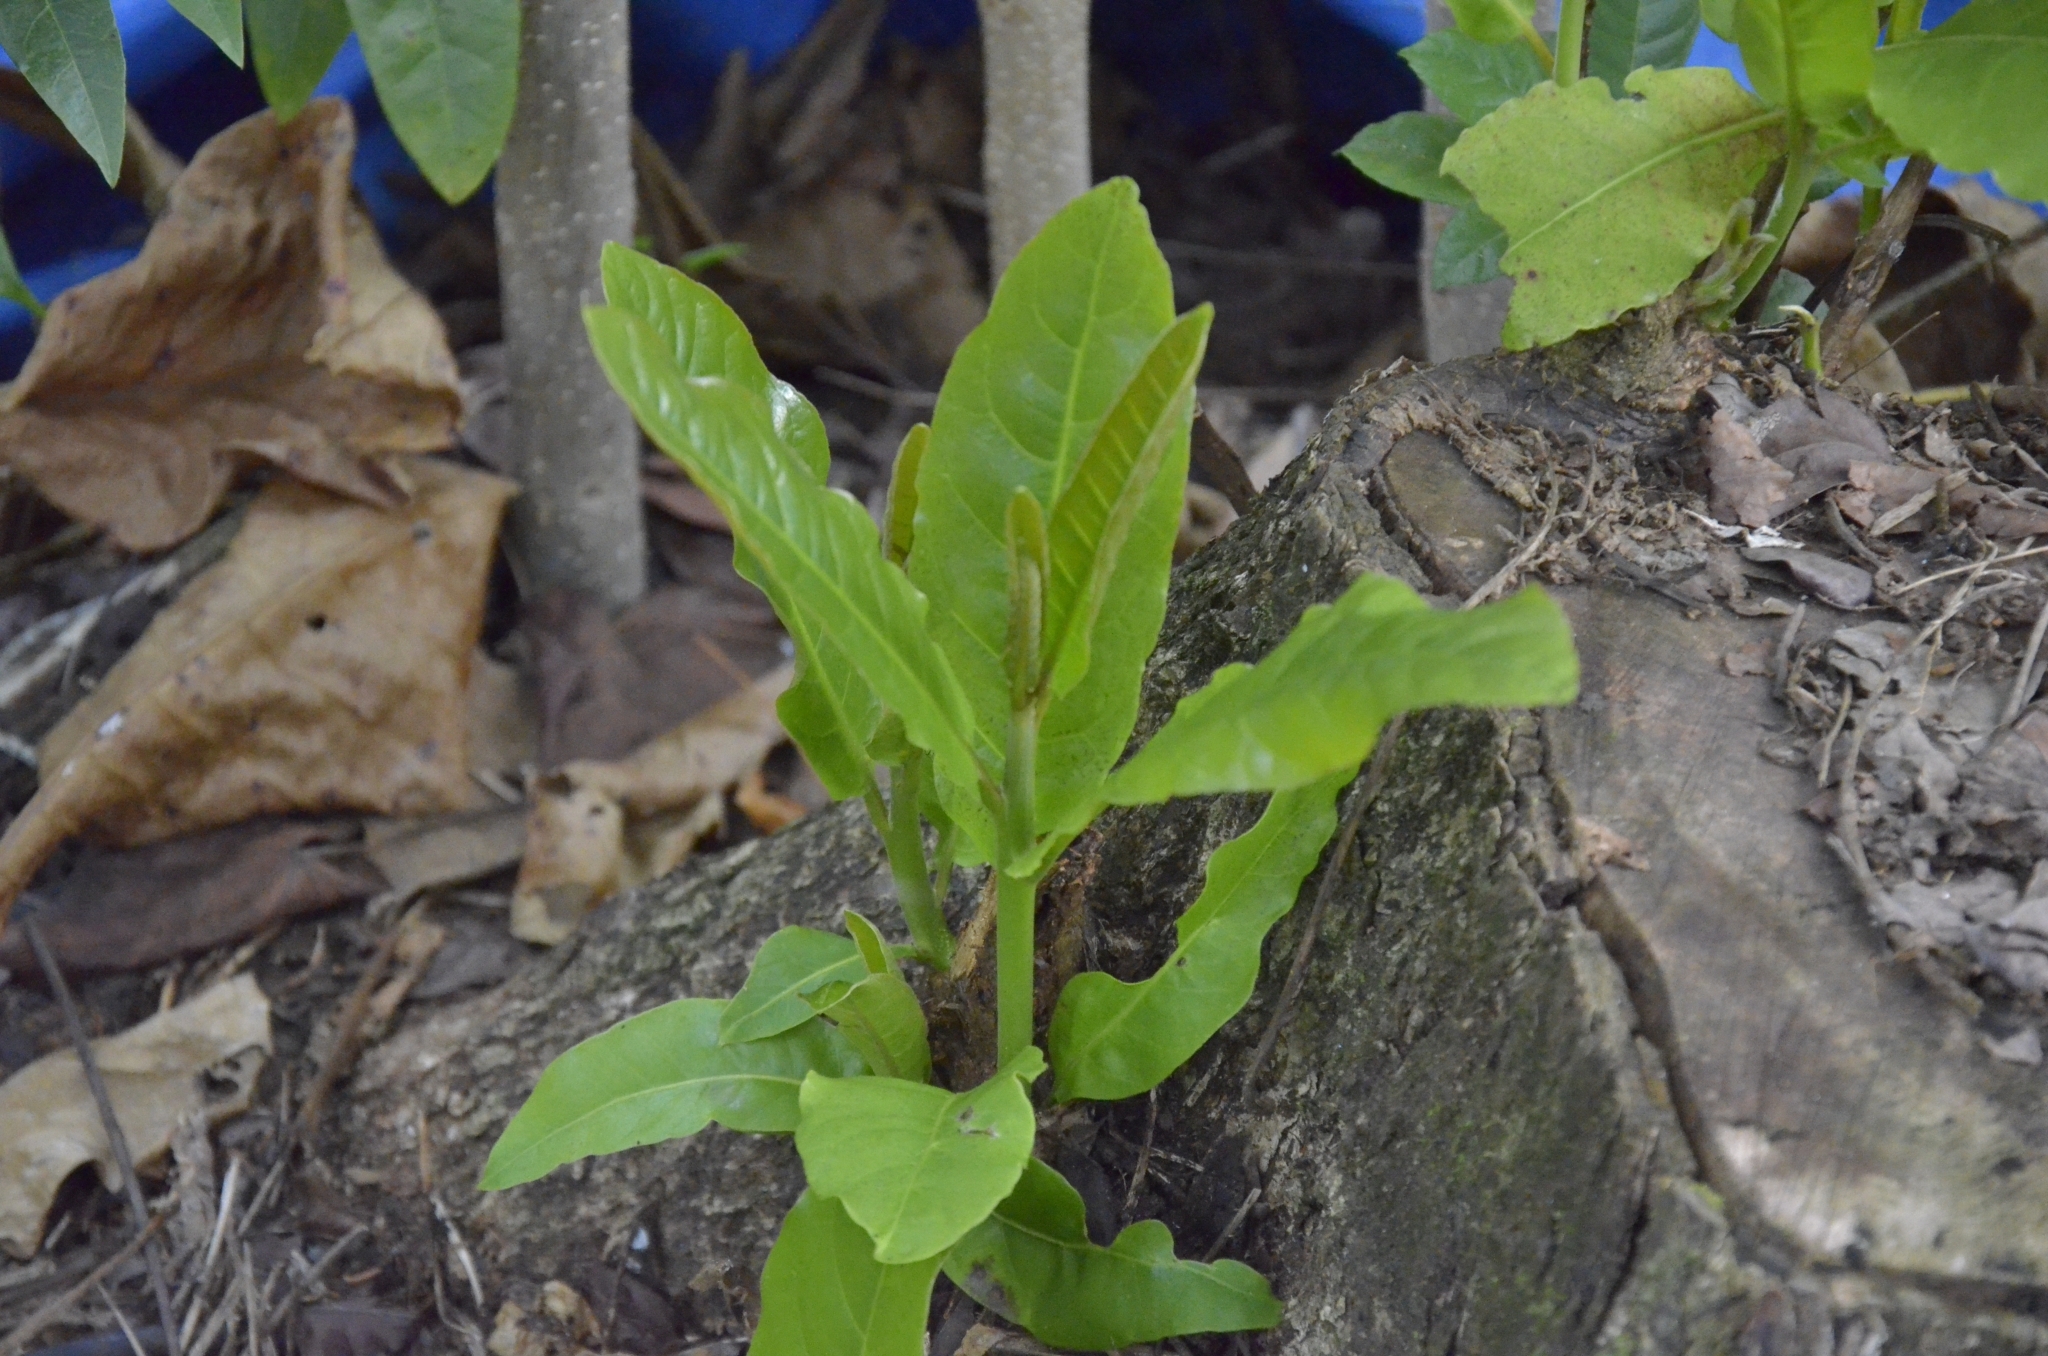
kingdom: Plantae
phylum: Tracheophyta
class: Magnoliopsida
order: Myrtales
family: Combretaceae
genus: Terminalia
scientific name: Terminalia catappa
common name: Tropical almond
